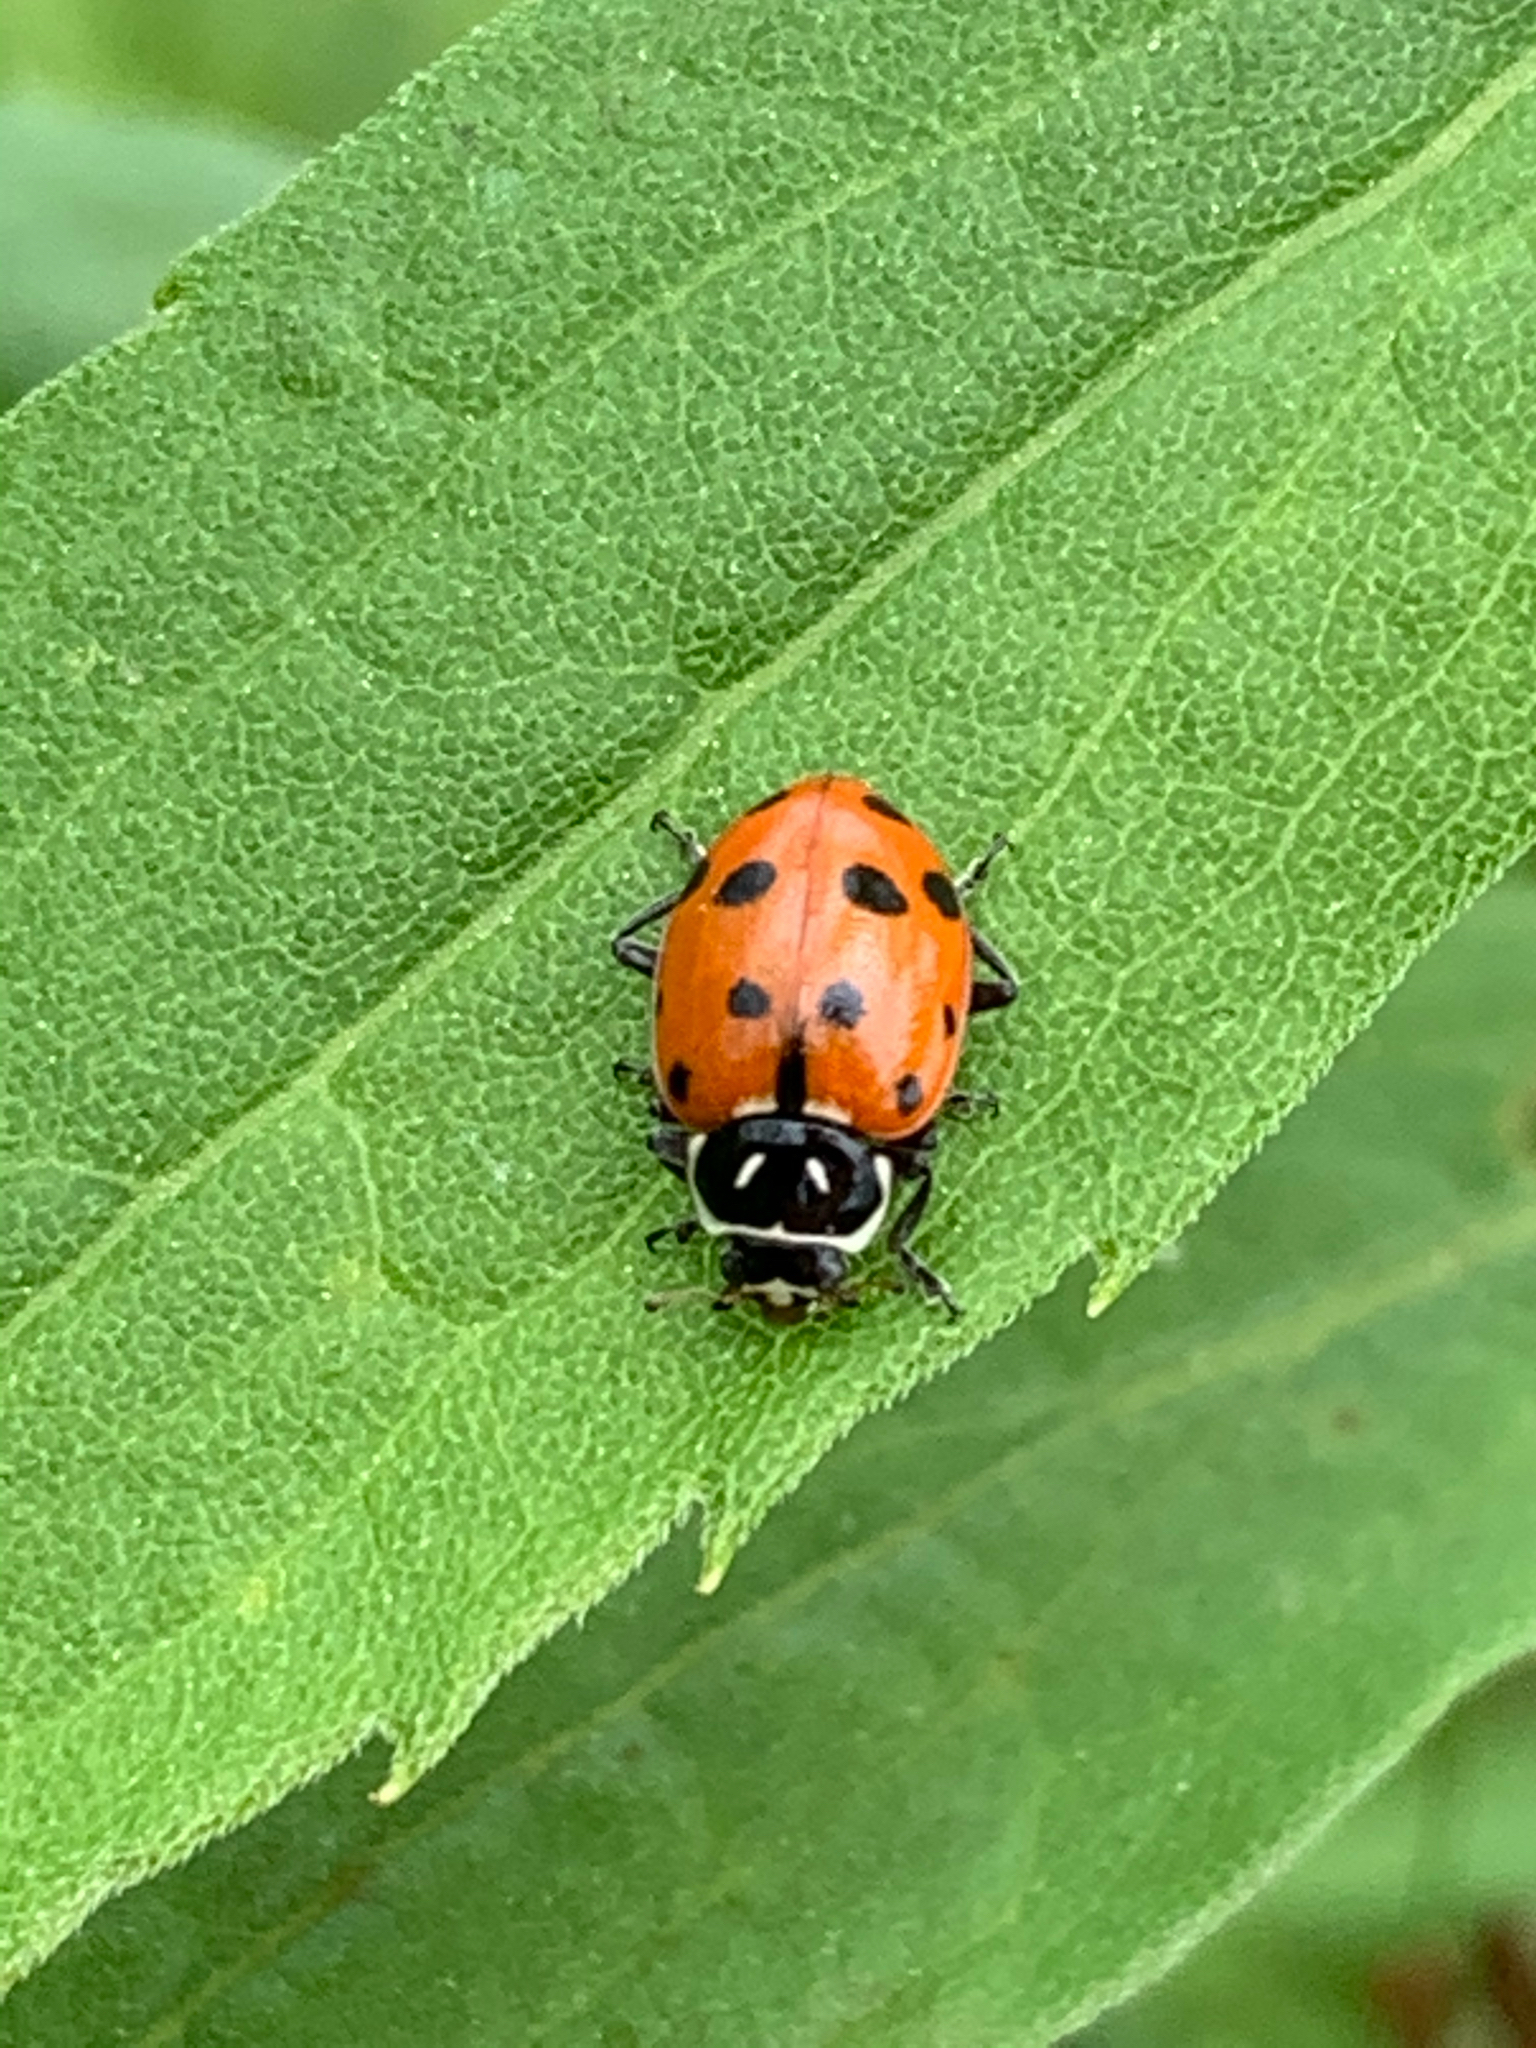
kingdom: Animalia
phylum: Arthropoda
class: Insecta
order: Coleoptera
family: Coccinellidae
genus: Hippodamia
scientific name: Hippodamia convergens
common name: Convergent lady beetle
